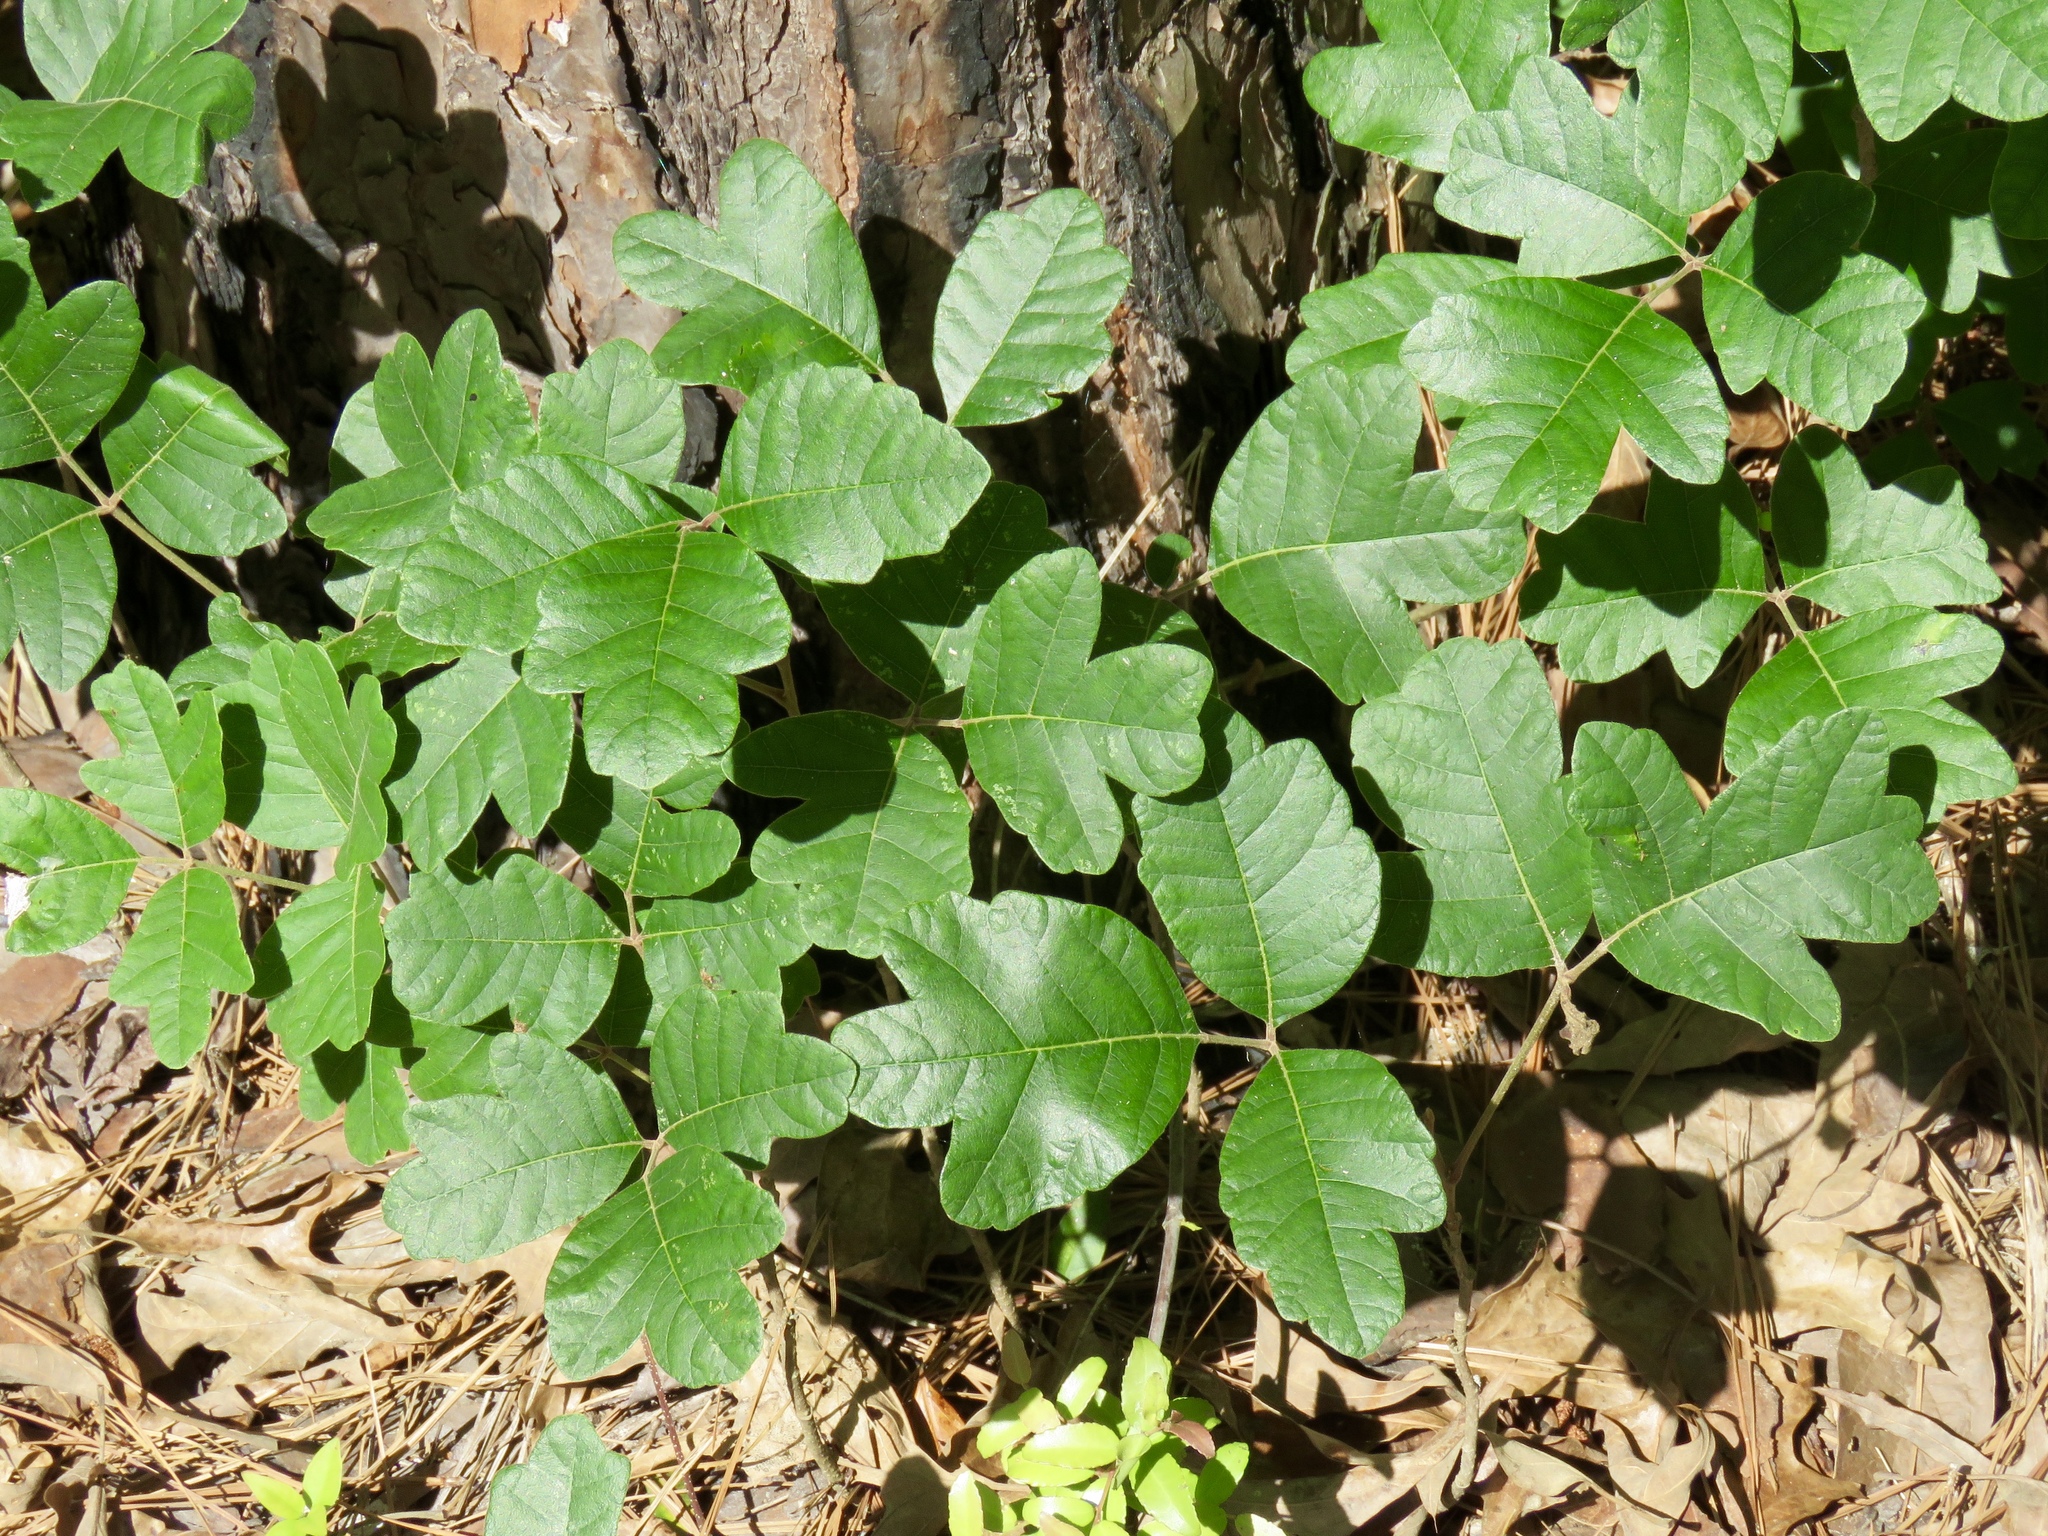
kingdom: Plantae
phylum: Tracheophyta
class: Magnoliopsida
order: Sapindales
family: Anacardiaceae
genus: Toxicodendron
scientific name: Toxicodendron pubescens
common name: Eastern poison-oak
